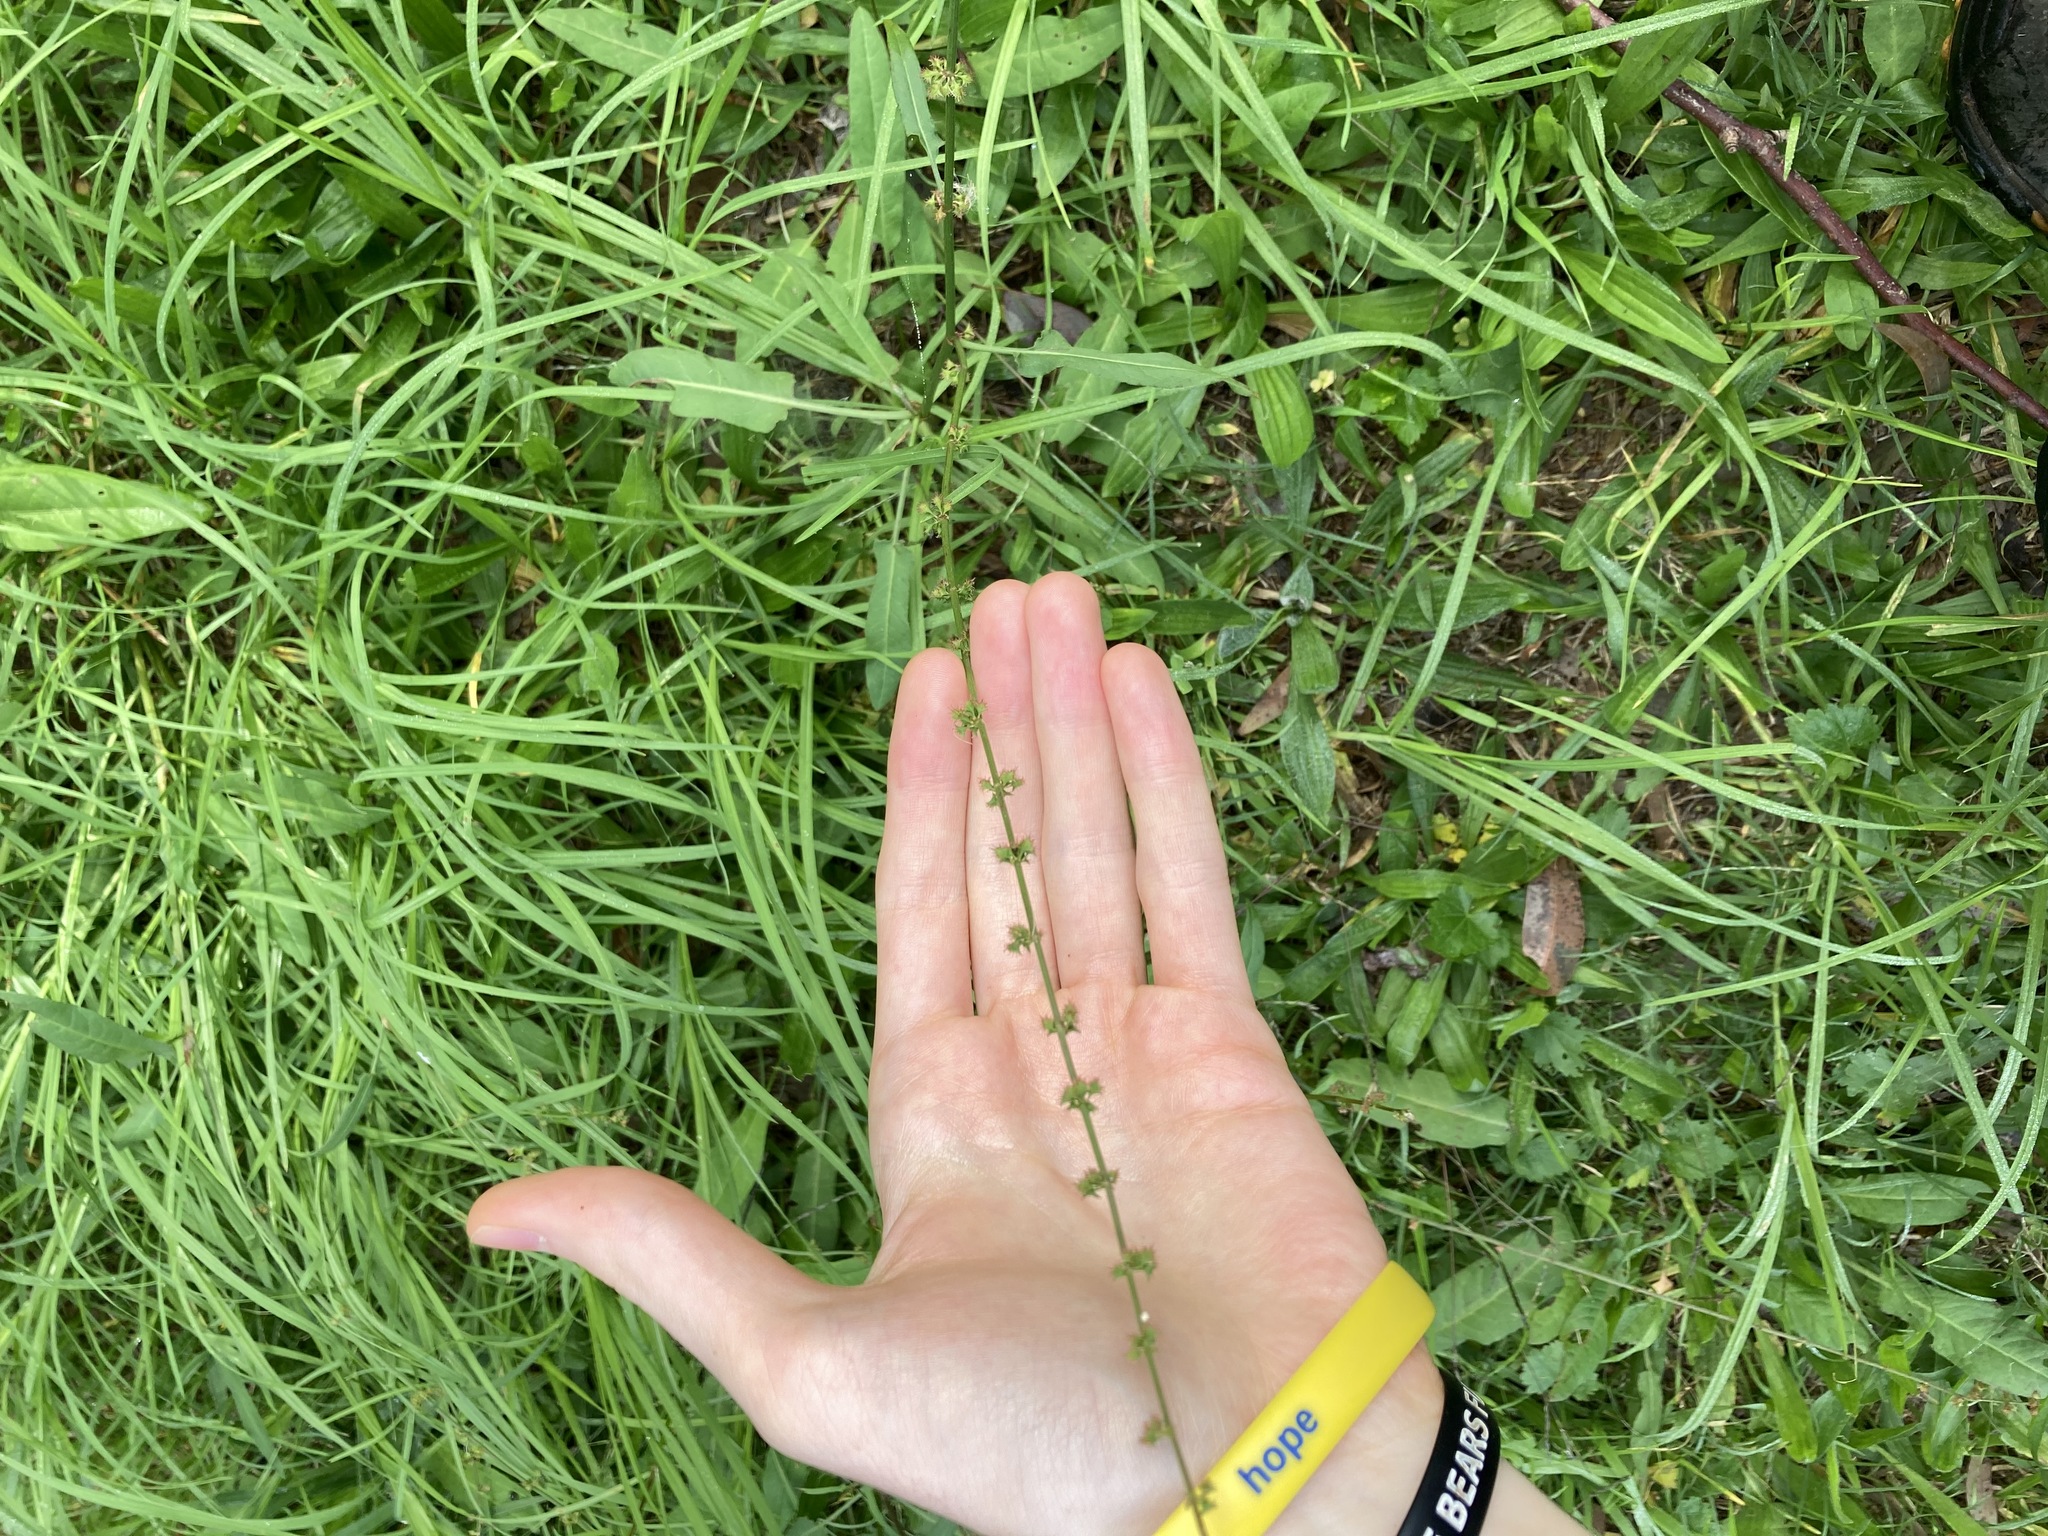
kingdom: Plantae
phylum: Tracheophyta
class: Magnoliopsida
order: Caryophyllales
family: Polygonaceae
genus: Rumex
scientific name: Rumex brownii
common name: Hooked dock
